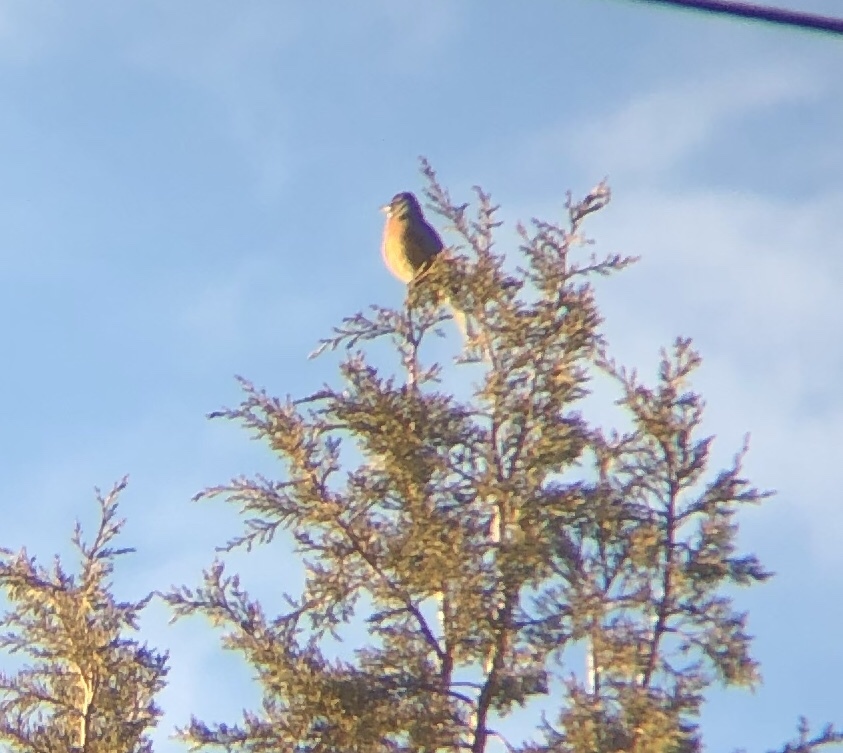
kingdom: Animalia
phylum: Chordata
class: Aves
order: Passeriformes
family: Turdidae
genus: Turdus
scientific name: Turdus migratorius
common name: American robin
